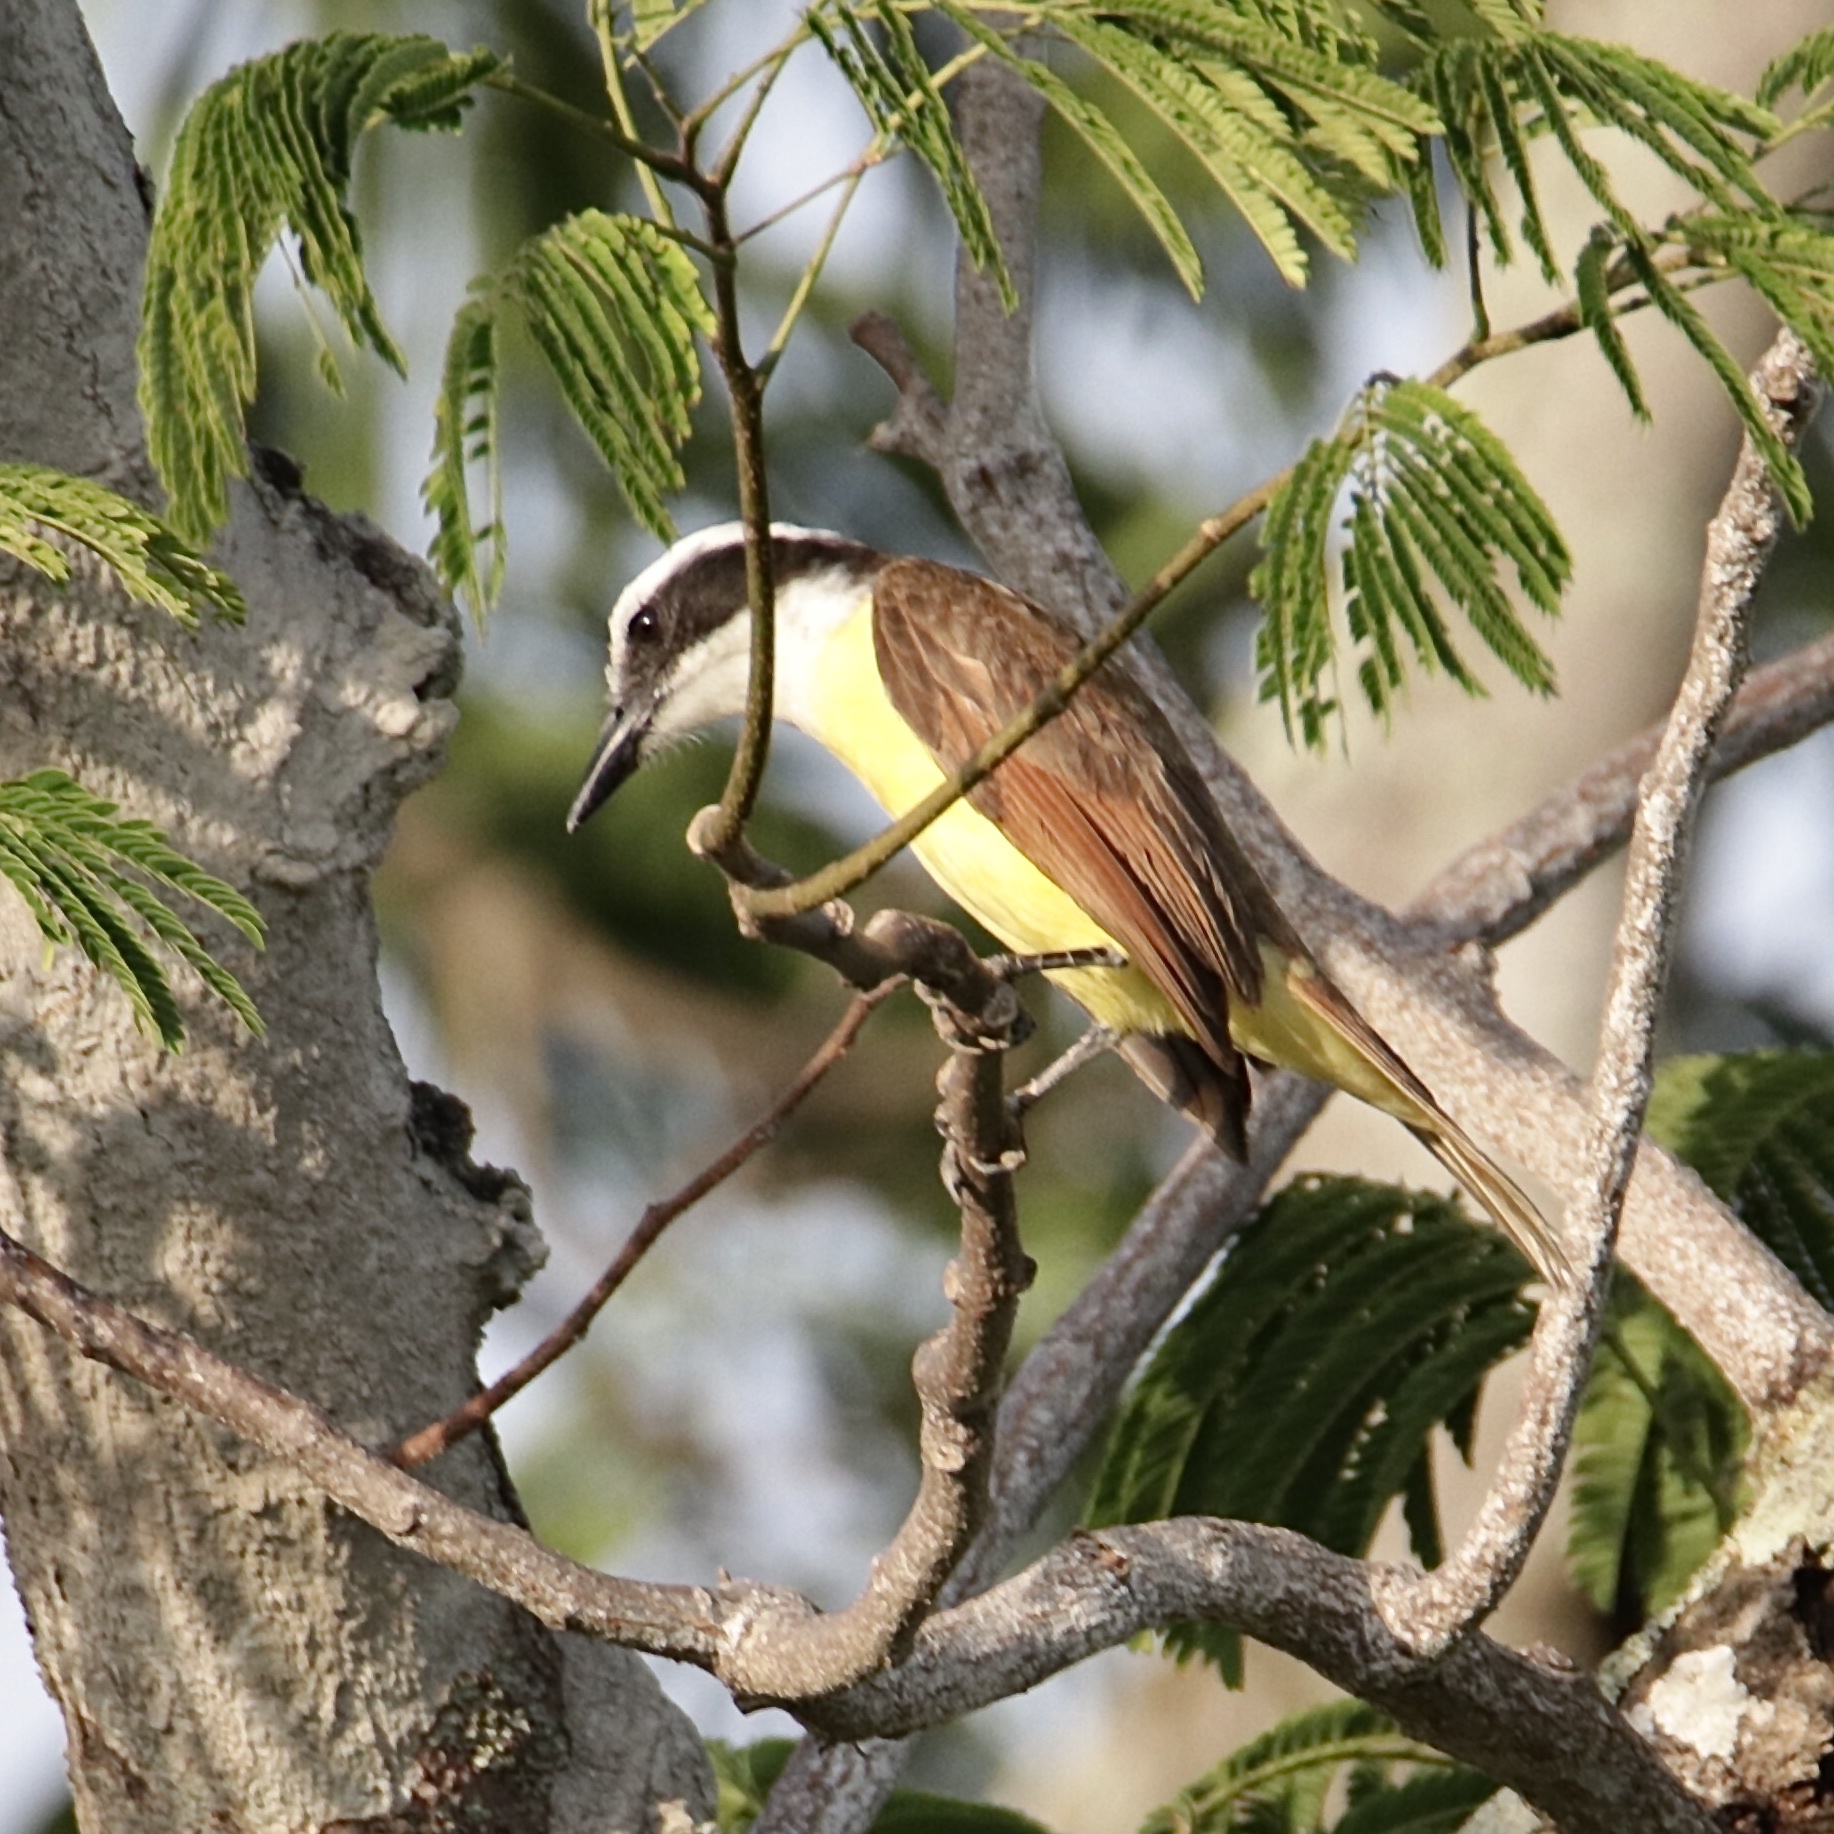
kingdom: Animalia
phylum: Chordata
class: Aves
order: Passeriformes
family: Tyrannidae
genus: Pitangus
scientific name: Pitangus sulphuratus
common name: Great kiskadee
